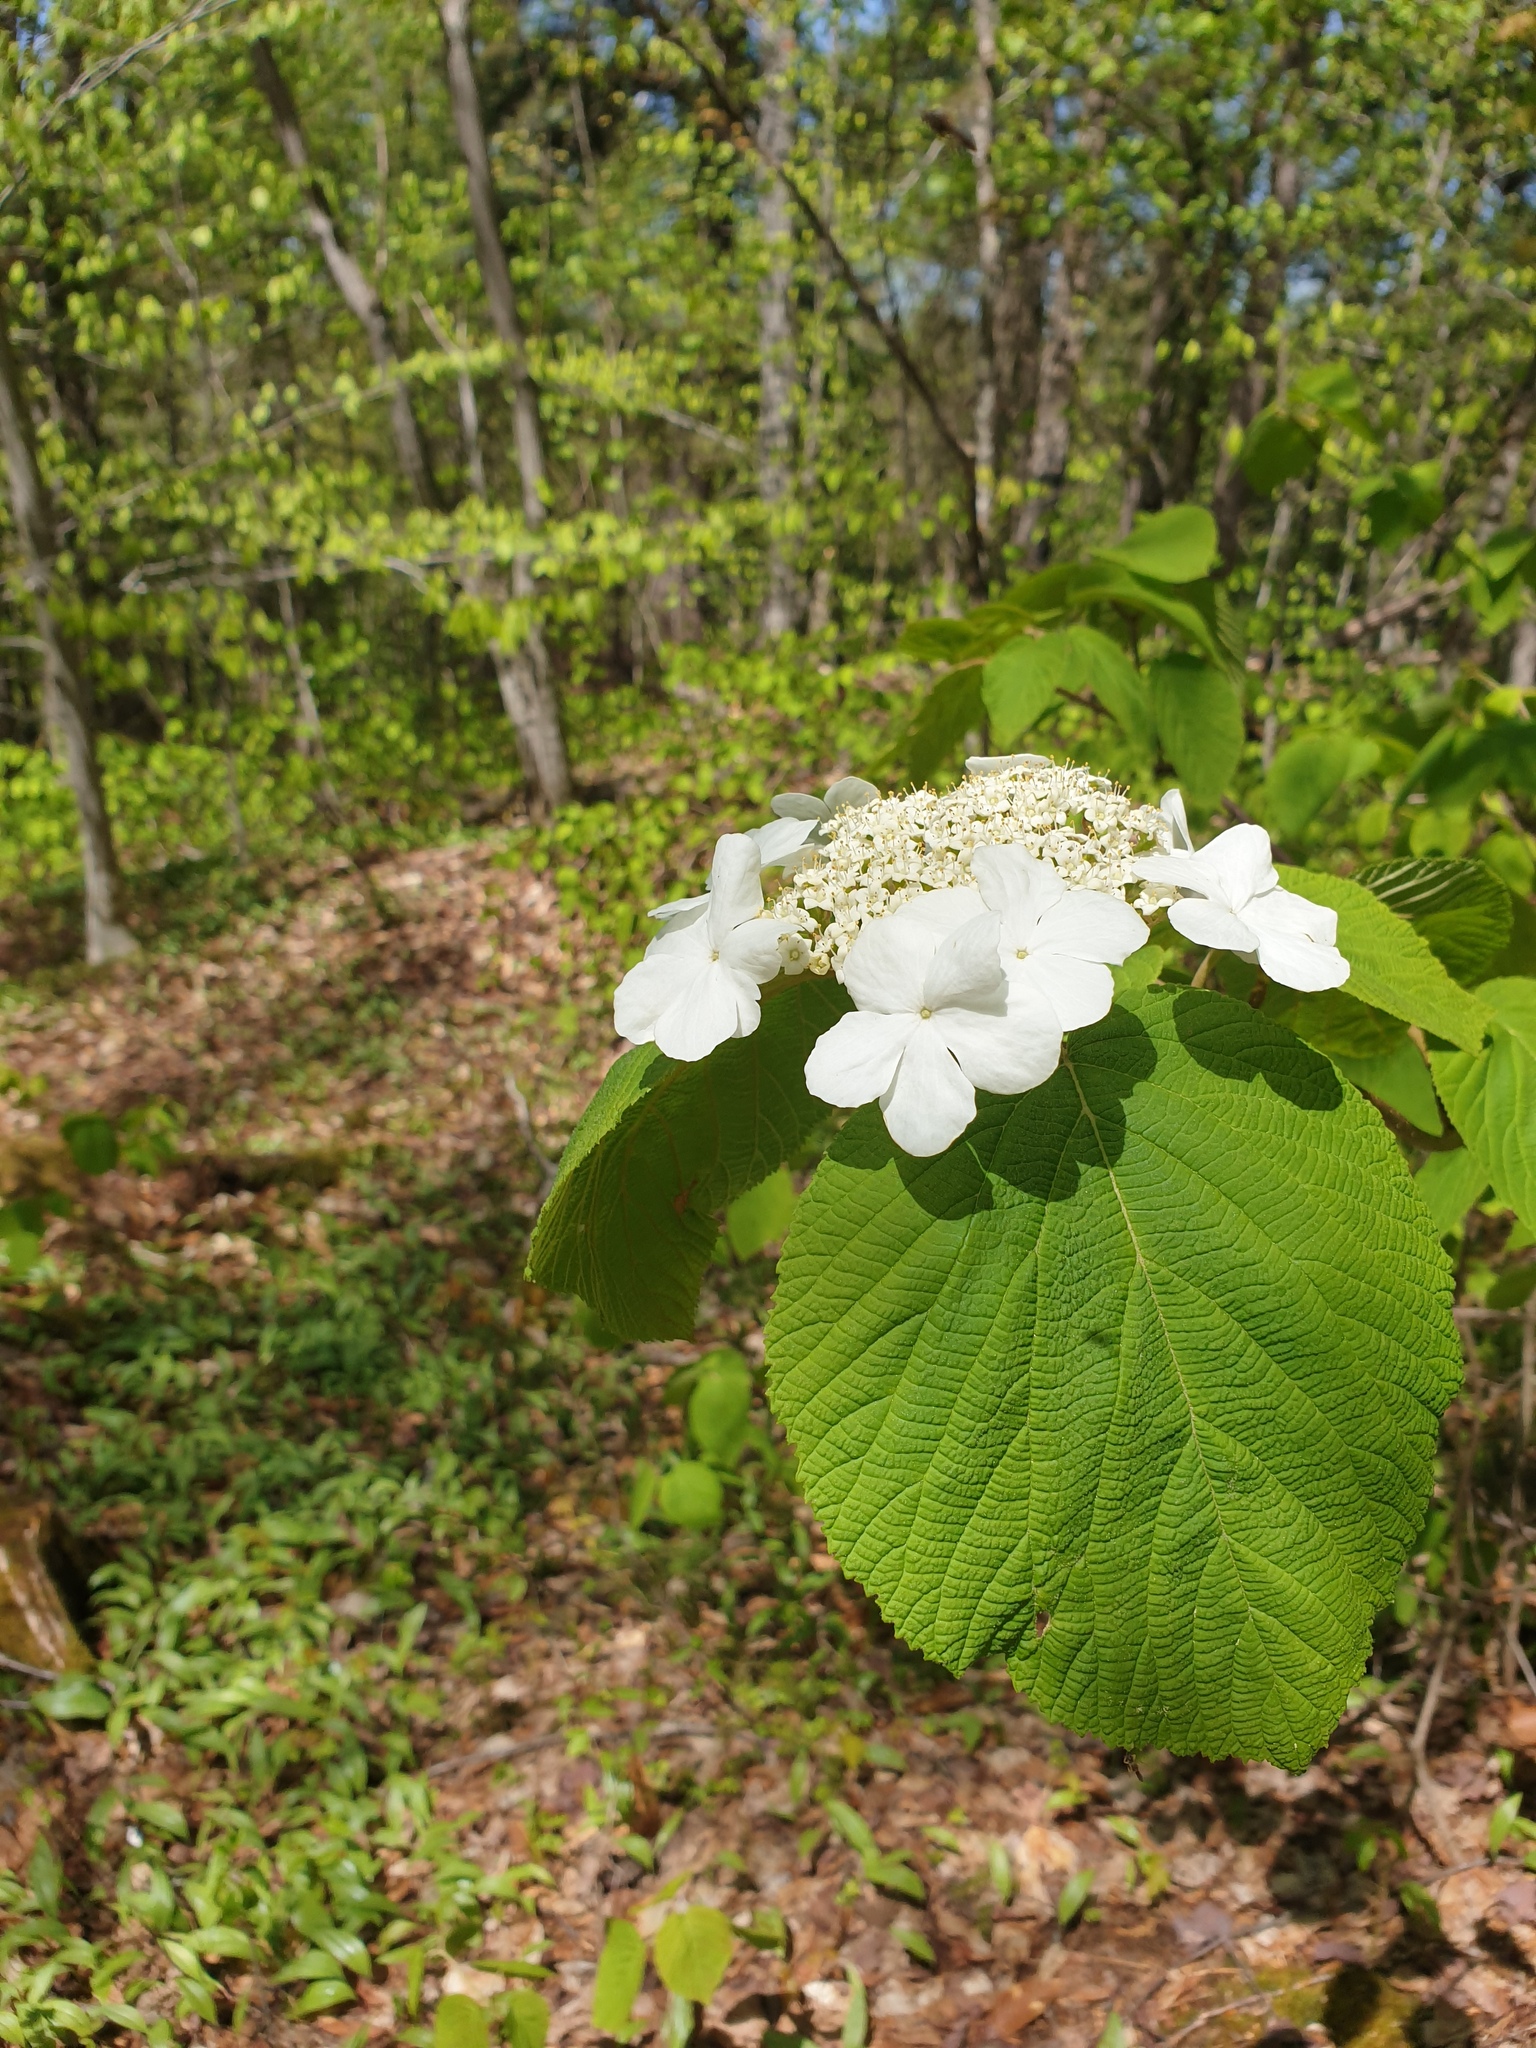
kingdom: Plantae
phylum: Tracheophyta
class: Magnoliopsida
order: Dipsacales
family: Viburnaceae
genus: Viburnum
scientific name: Viburnum lantanoides
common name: Hobblebush
